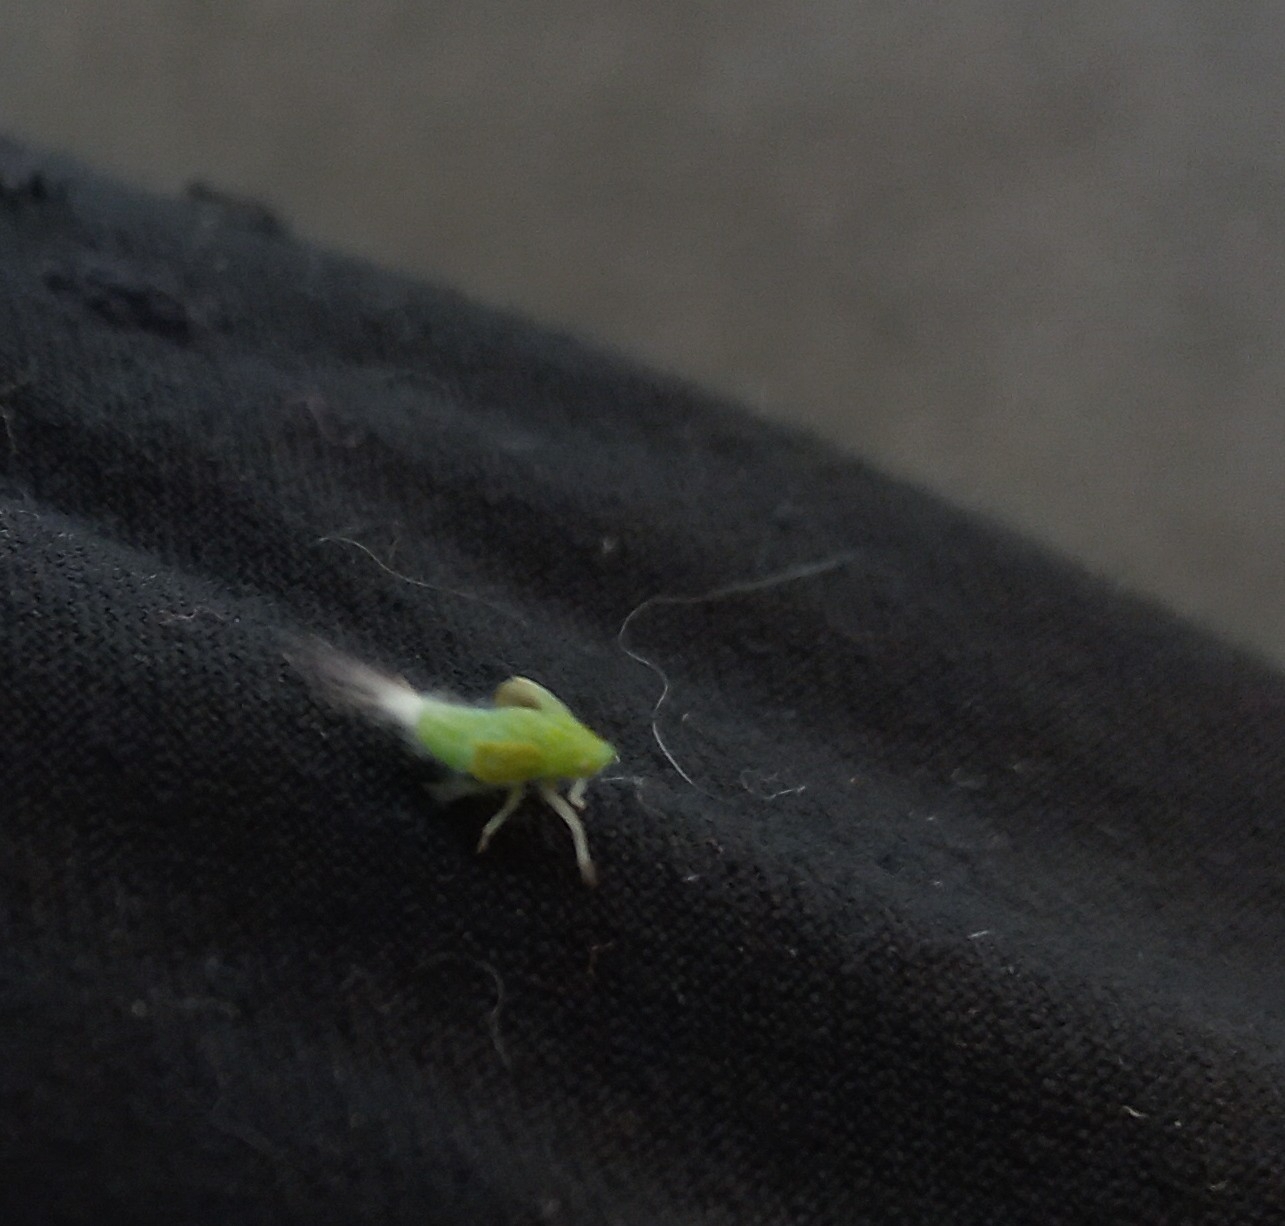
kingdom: Animalia
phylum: Arthropoda
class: Insecta
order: Hemiptera
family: Flatidae
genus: Siphanta
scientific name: Siphanta acuta
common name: Torpedo bug
